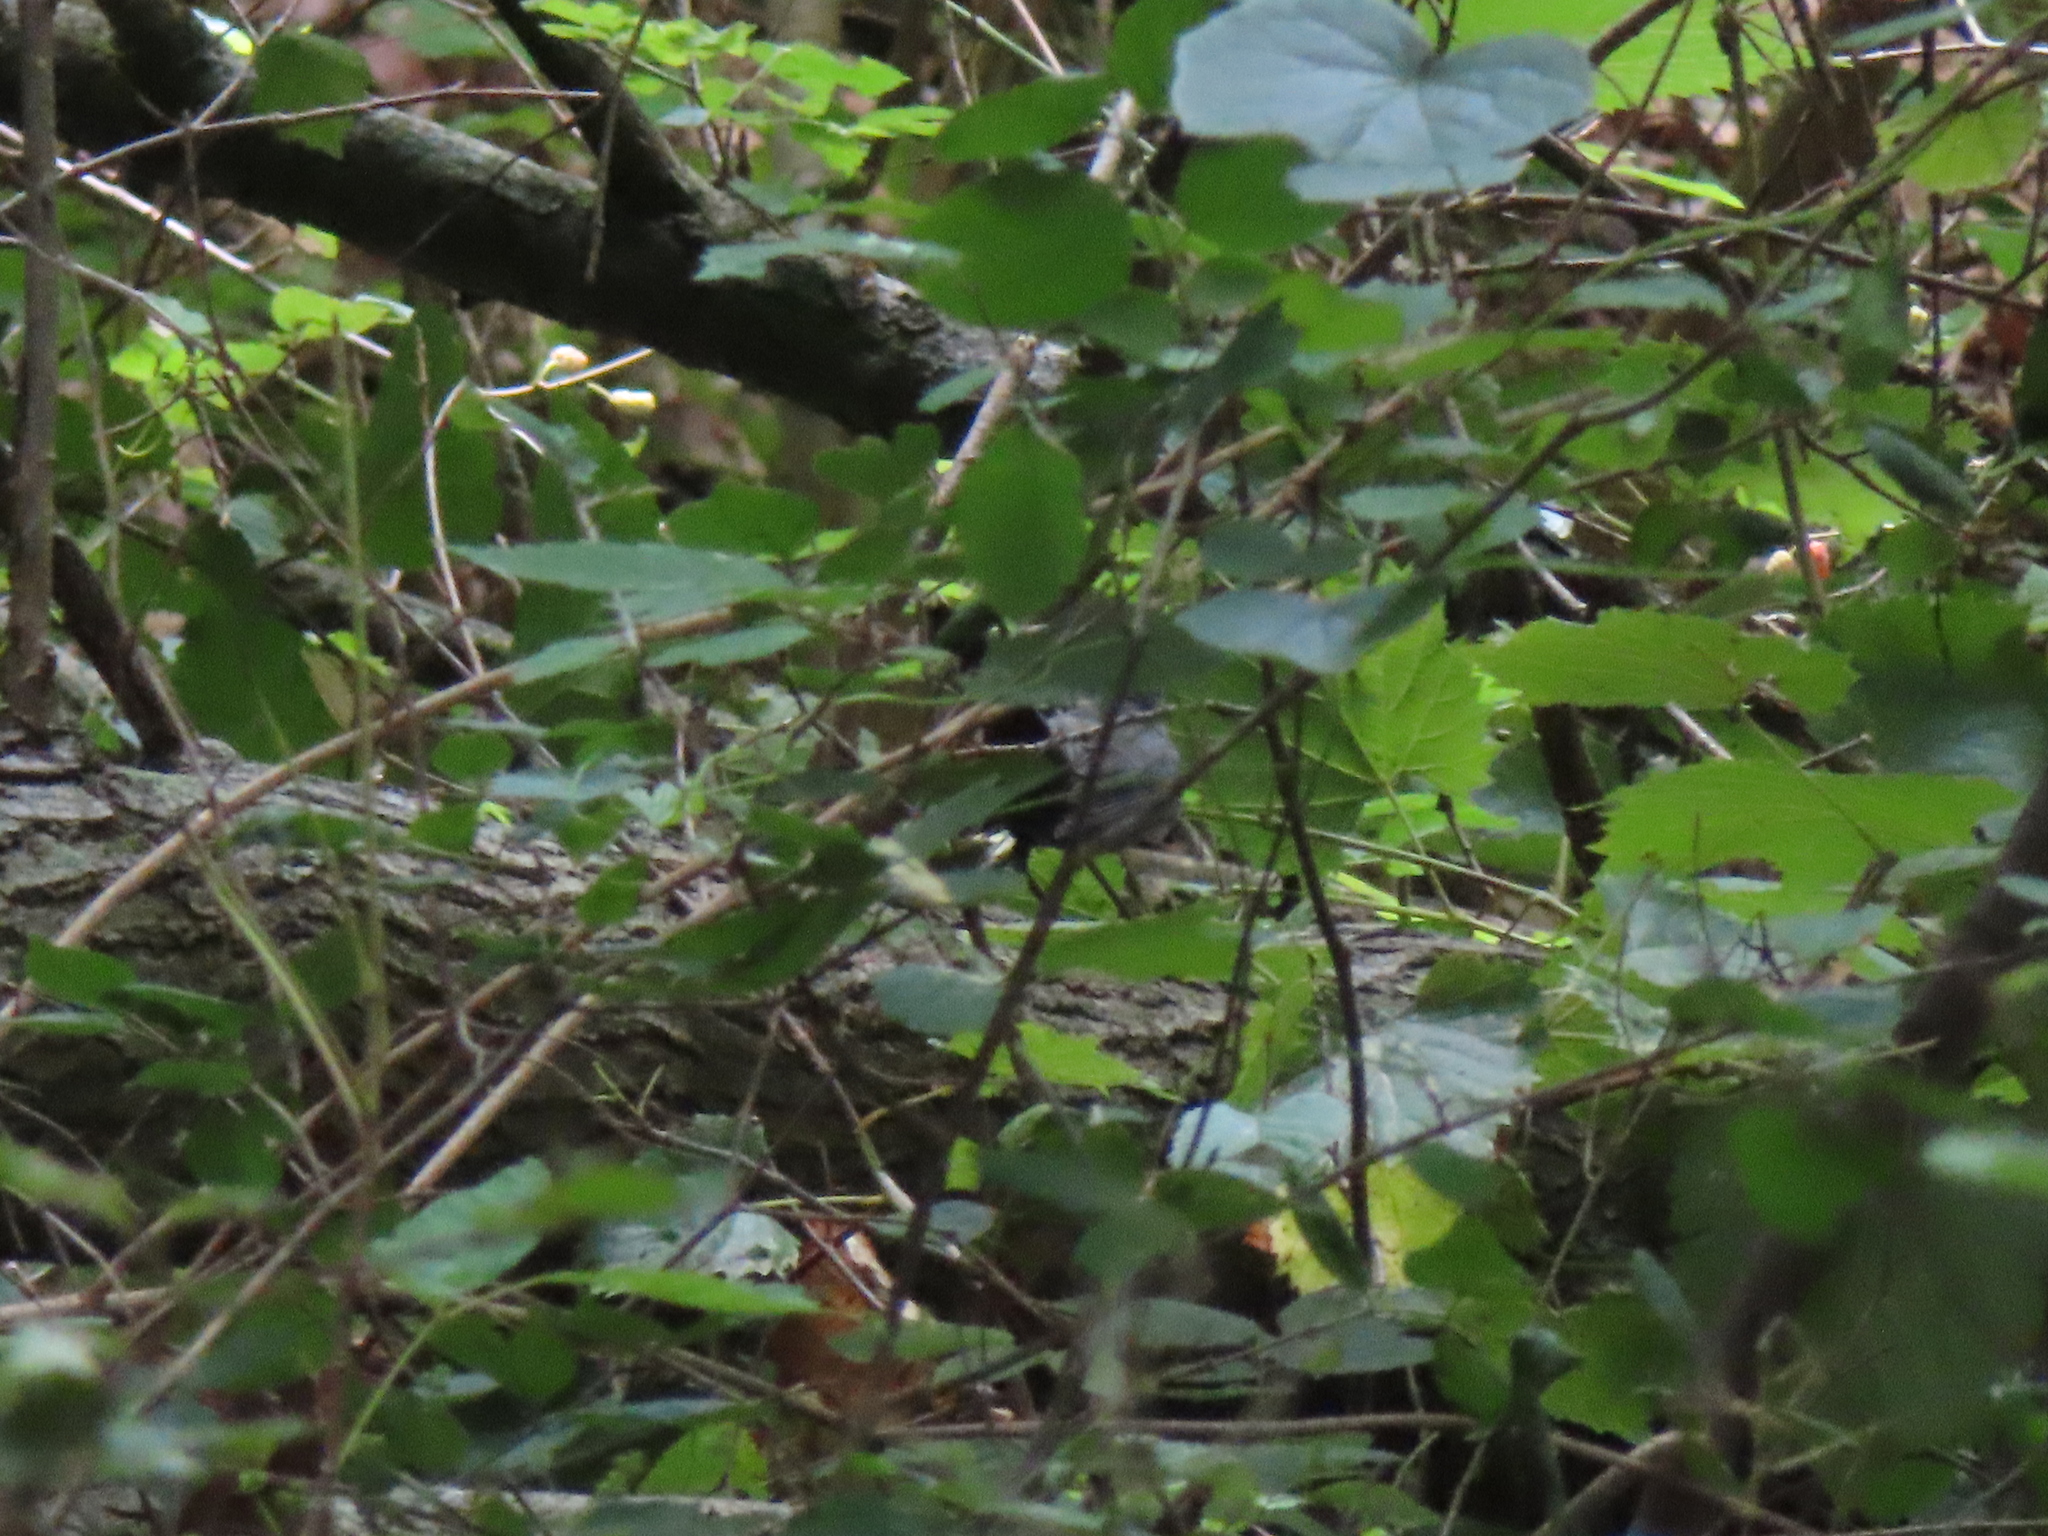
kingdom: Animalia
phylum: Chordata
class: Aves
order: Passeriformes
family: Mimidae
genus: Dumetella
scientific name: Dumetella carolinensis
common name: Gray catbird
